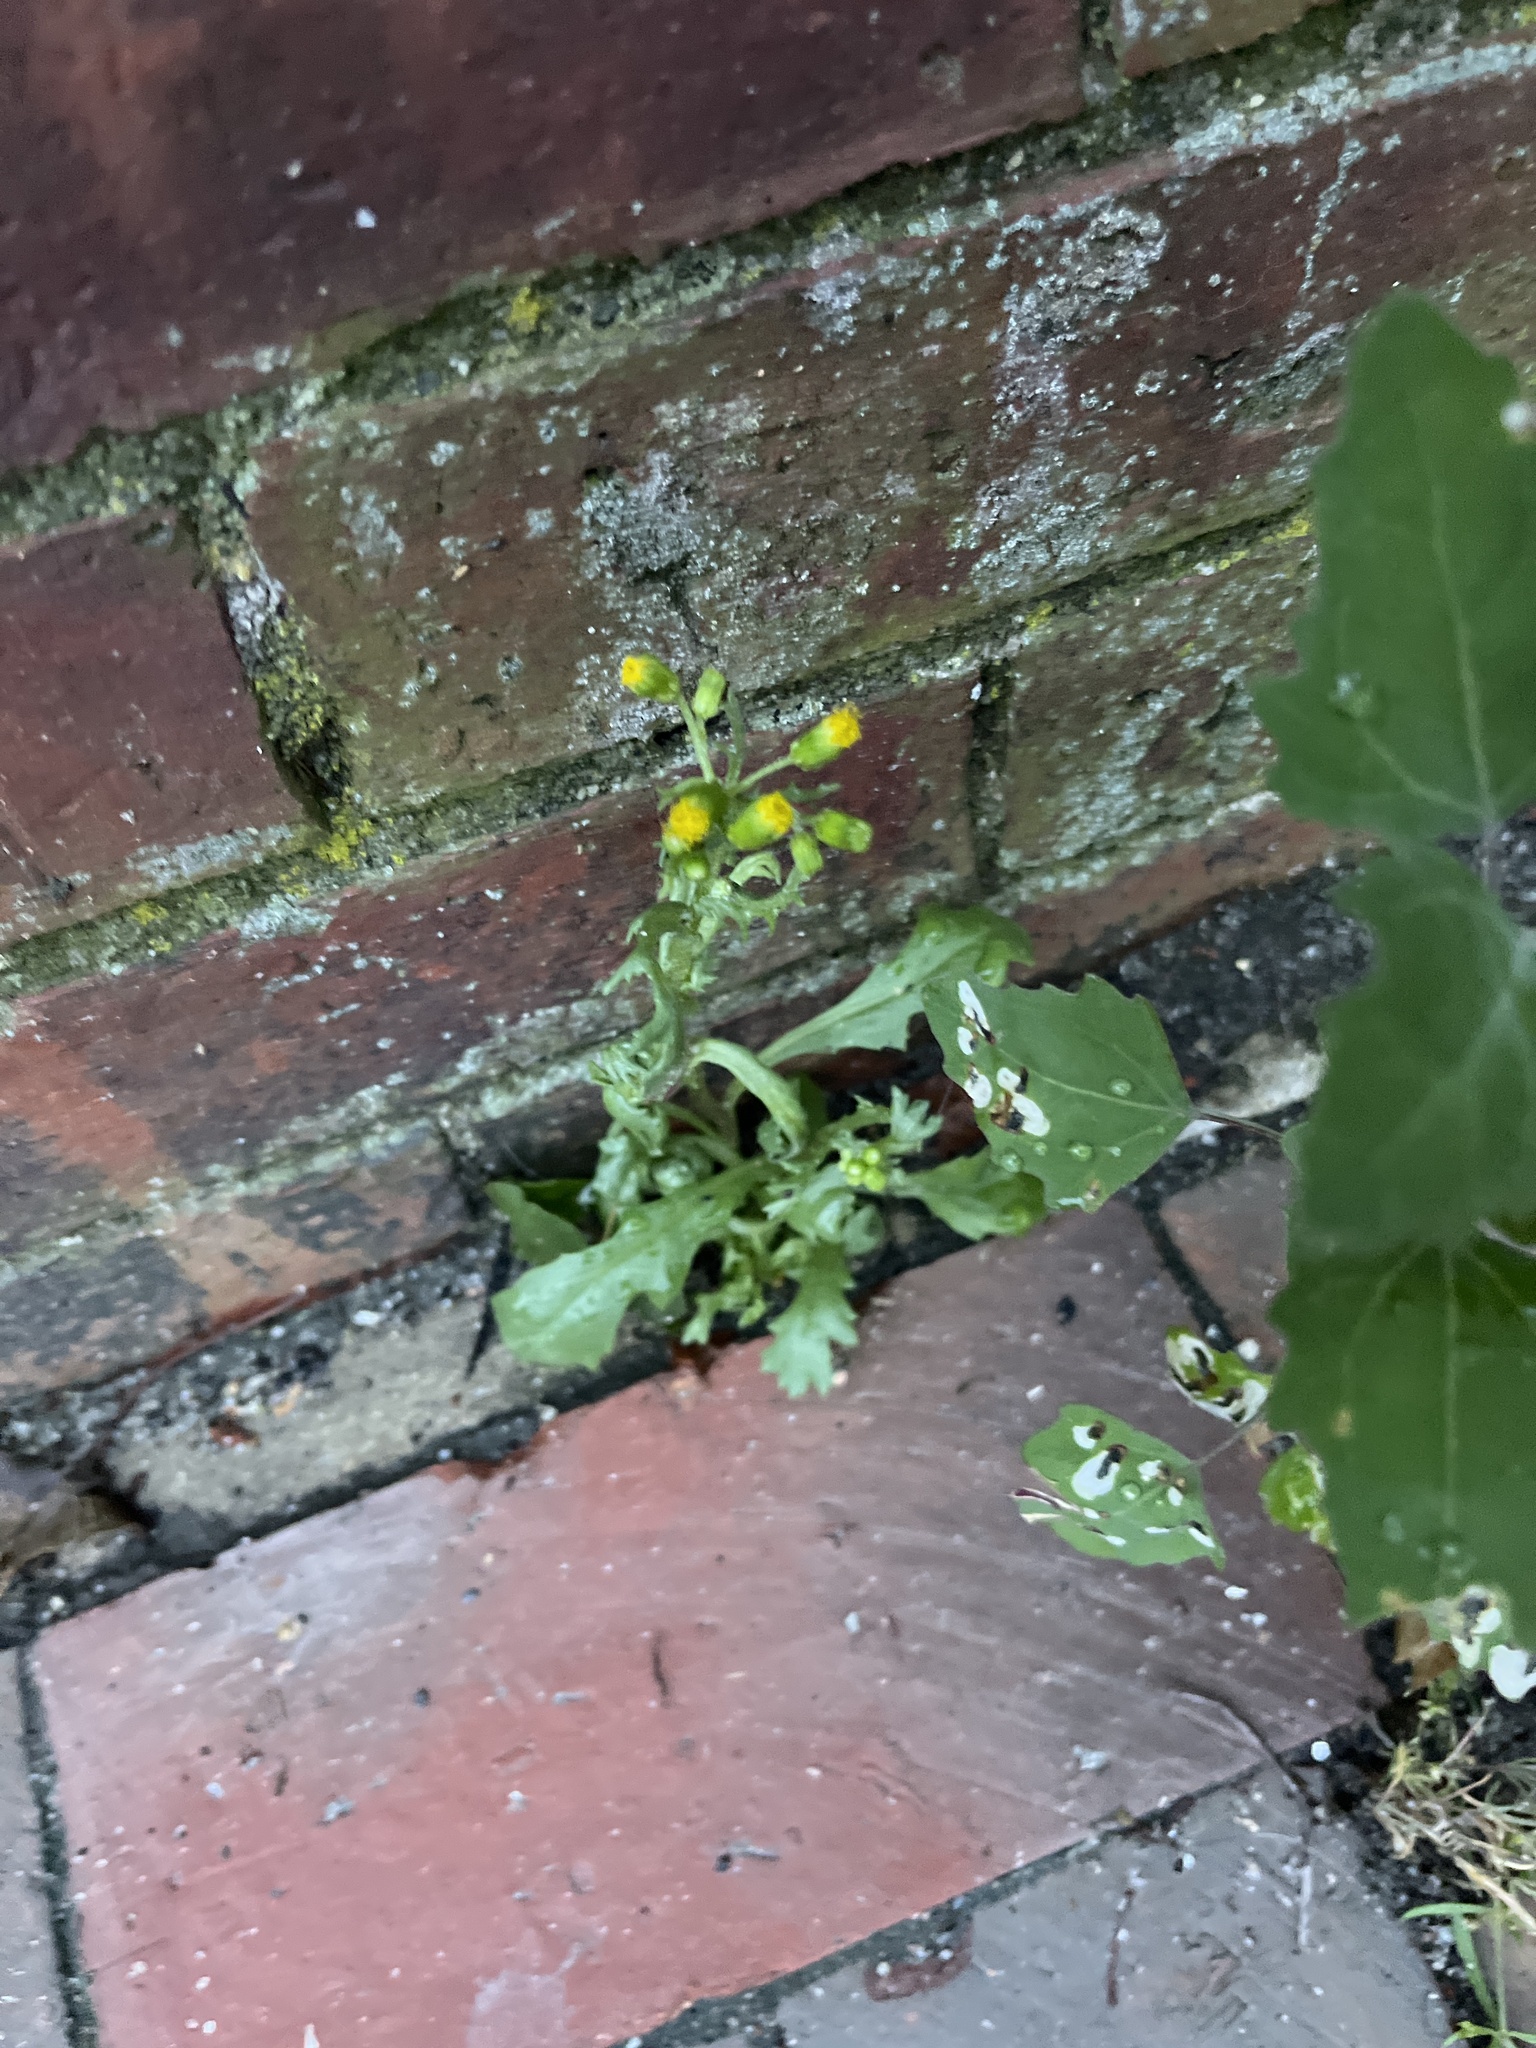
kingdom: Plantae
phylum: Tracheophyta
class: Magnoliopsida
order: Asterales
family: Asteraceae
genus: Senecio
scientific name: Senecio vulgaris
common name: Old-man-in-the-spring
